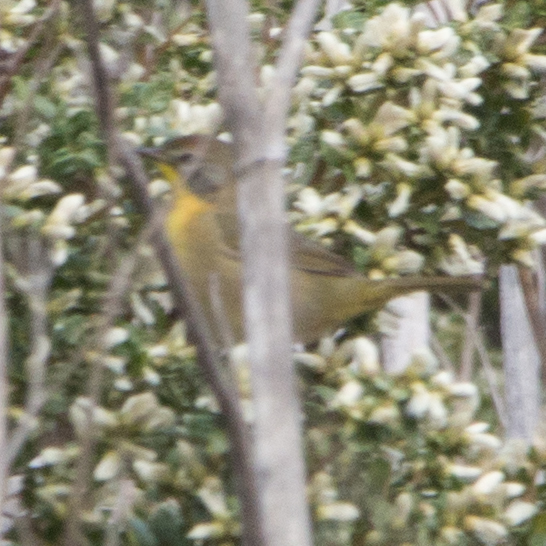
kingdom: Animalia
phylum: Chordata
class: Aves
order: Passeriformes
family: Parulidae
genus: Geothlypis
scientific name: Geothlypis trichas
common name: Common yellowthroat
